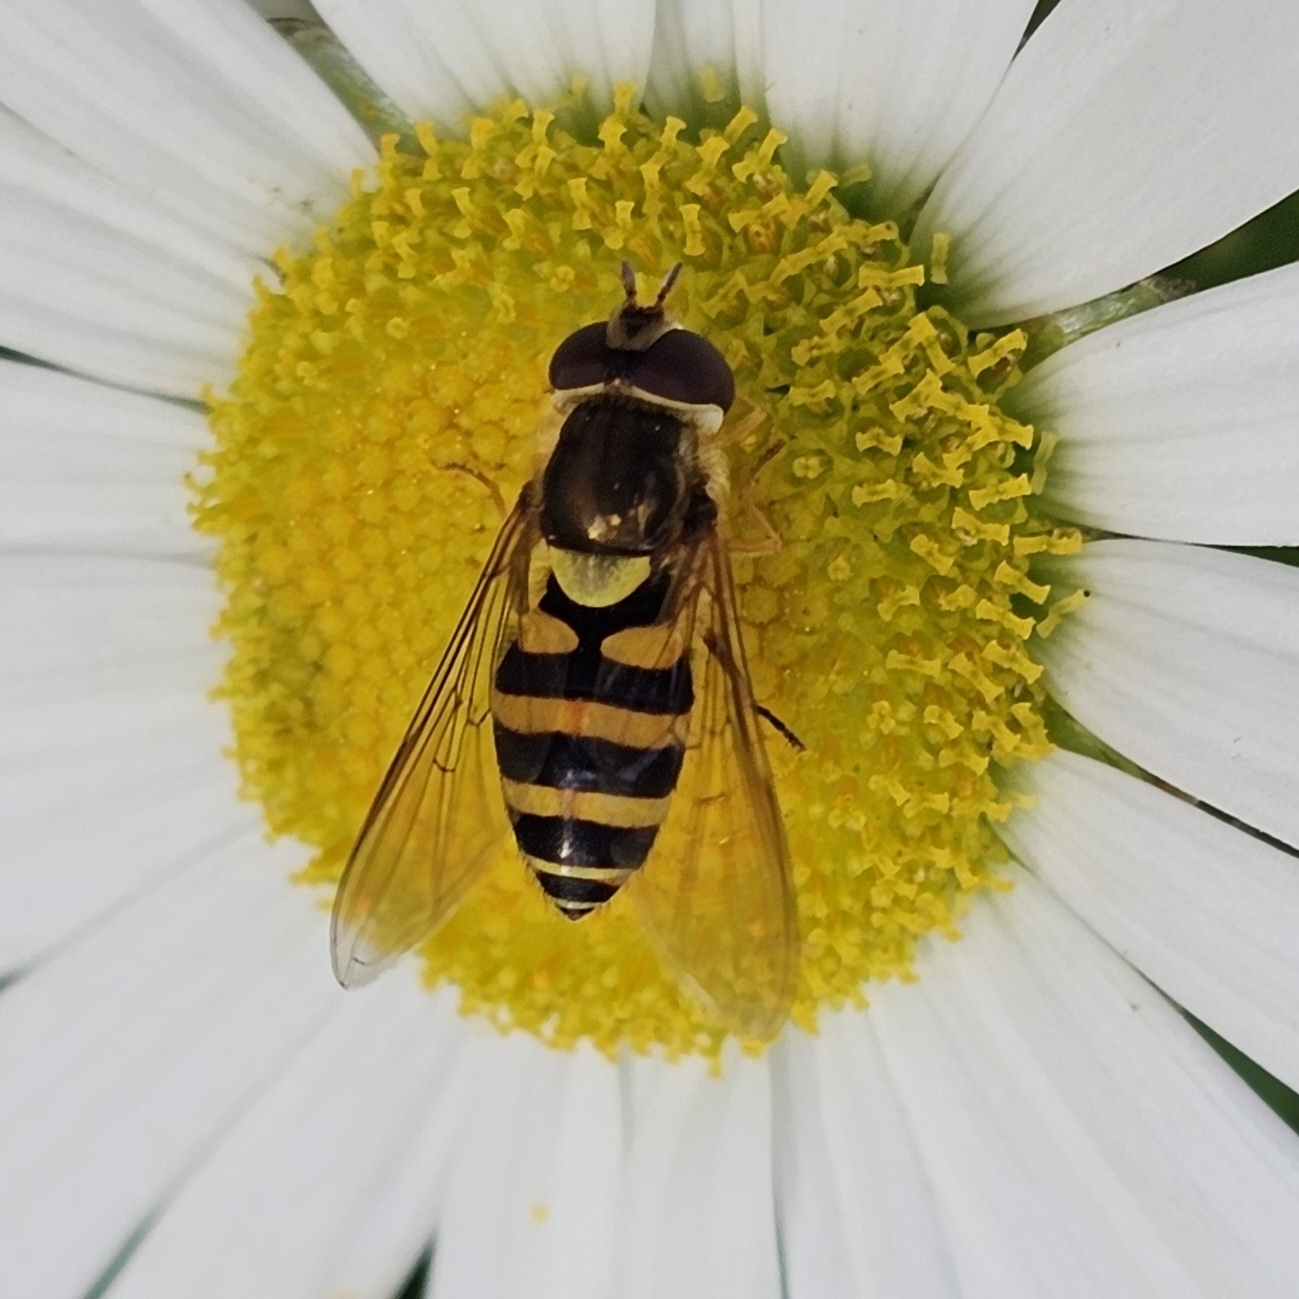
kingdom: Animalia
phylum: Arthropoda
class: Insecta
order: Diptera
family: Syrphidae
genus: Syrphus
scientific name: Syrphus rectus
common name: Yellow-legged flower fly
